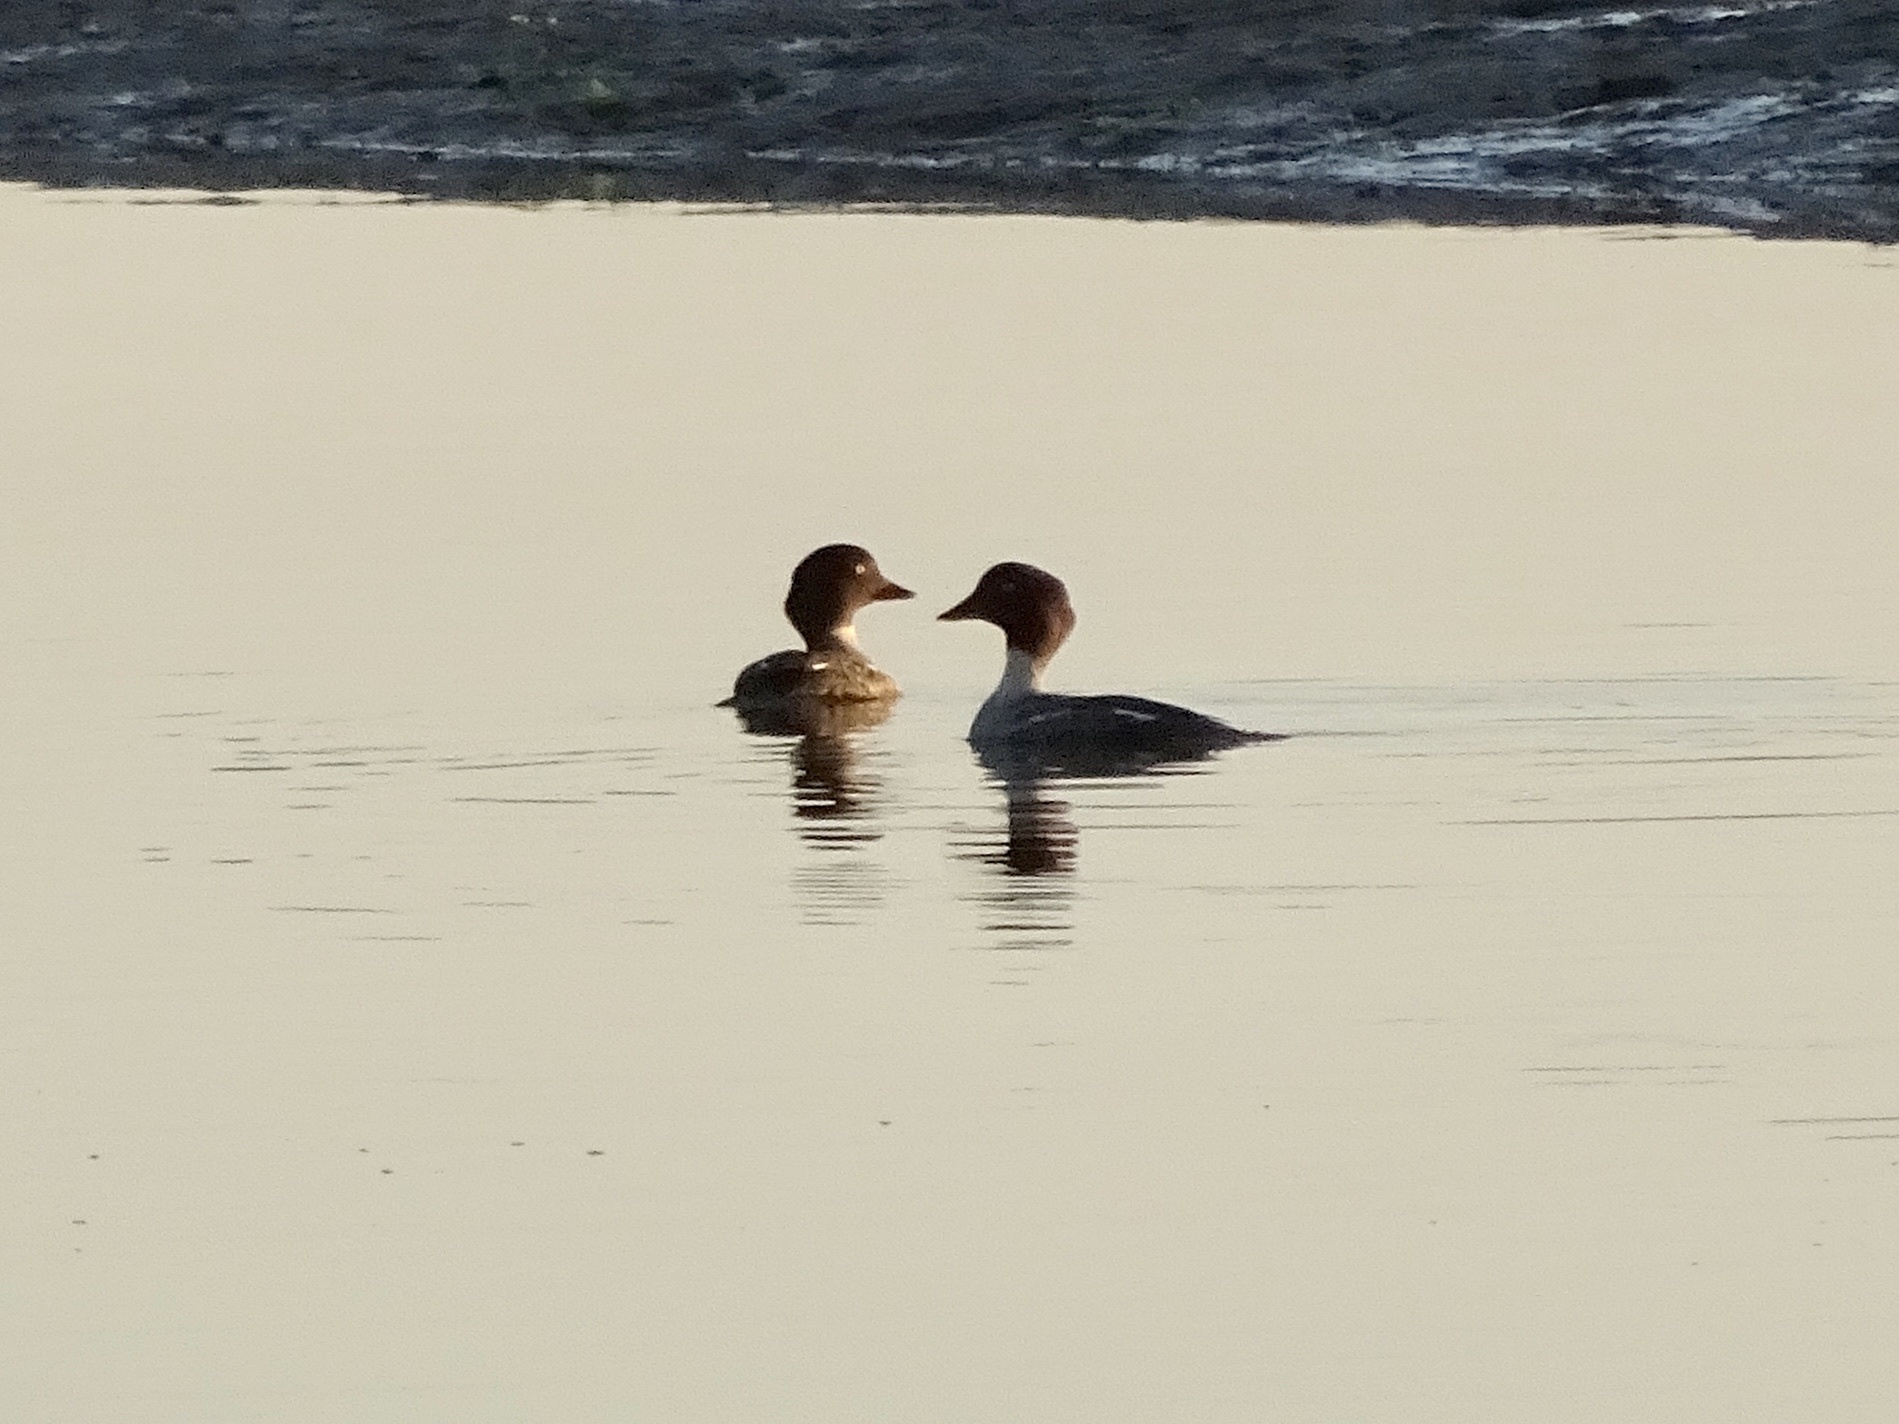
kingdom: Animalia
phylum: Chordata
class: Aves
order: Anseriformes
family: Anatidae
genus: Bucephala
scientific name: Bucephala clangula
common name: Common goldeneye
